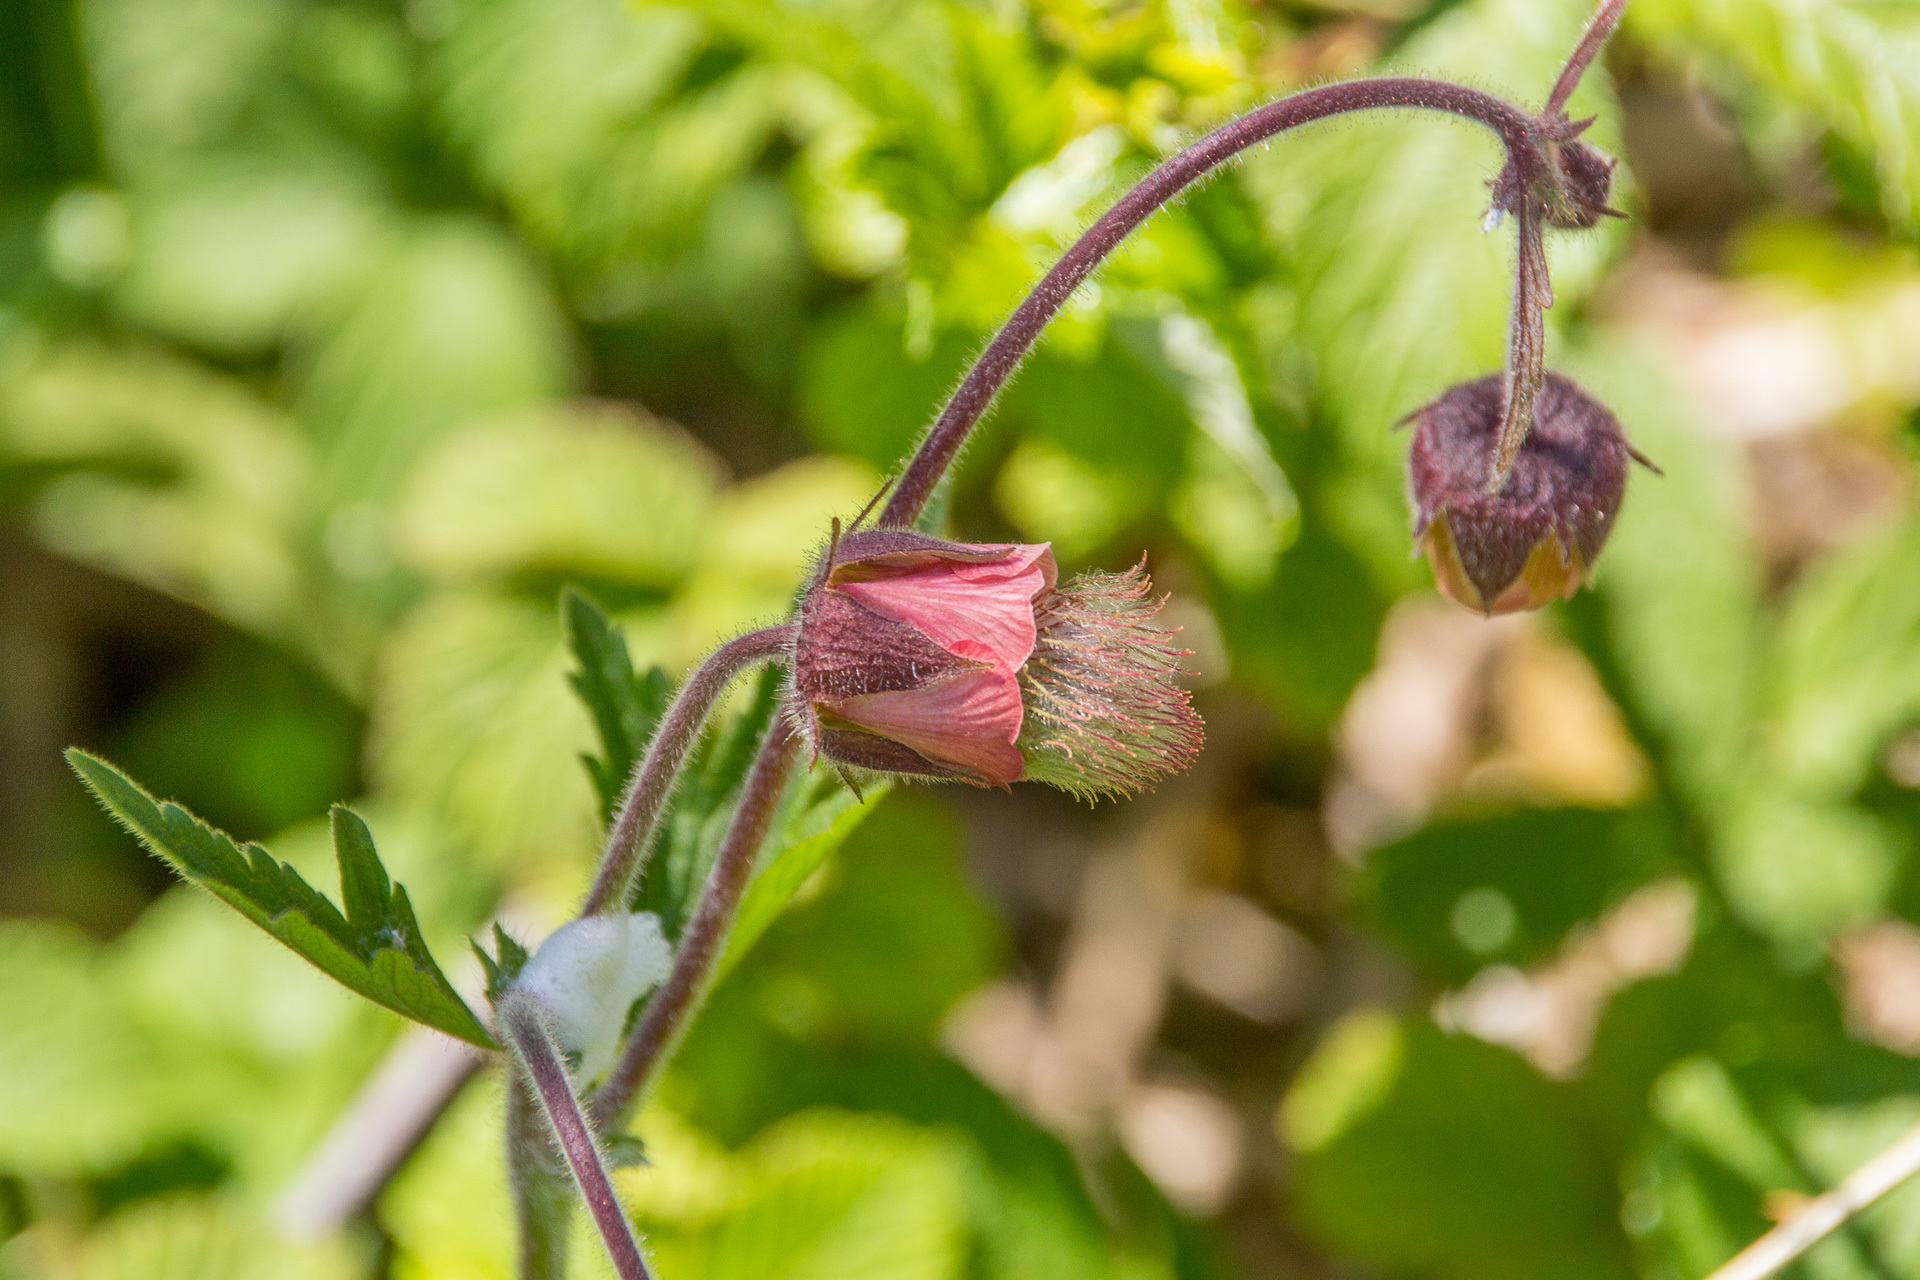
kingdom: Plantae
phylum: Tracheophyta
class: Magnoliopsida
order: Rosales
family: Rosaceae
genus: Geum
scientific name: Geum rivale
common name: Water avens
